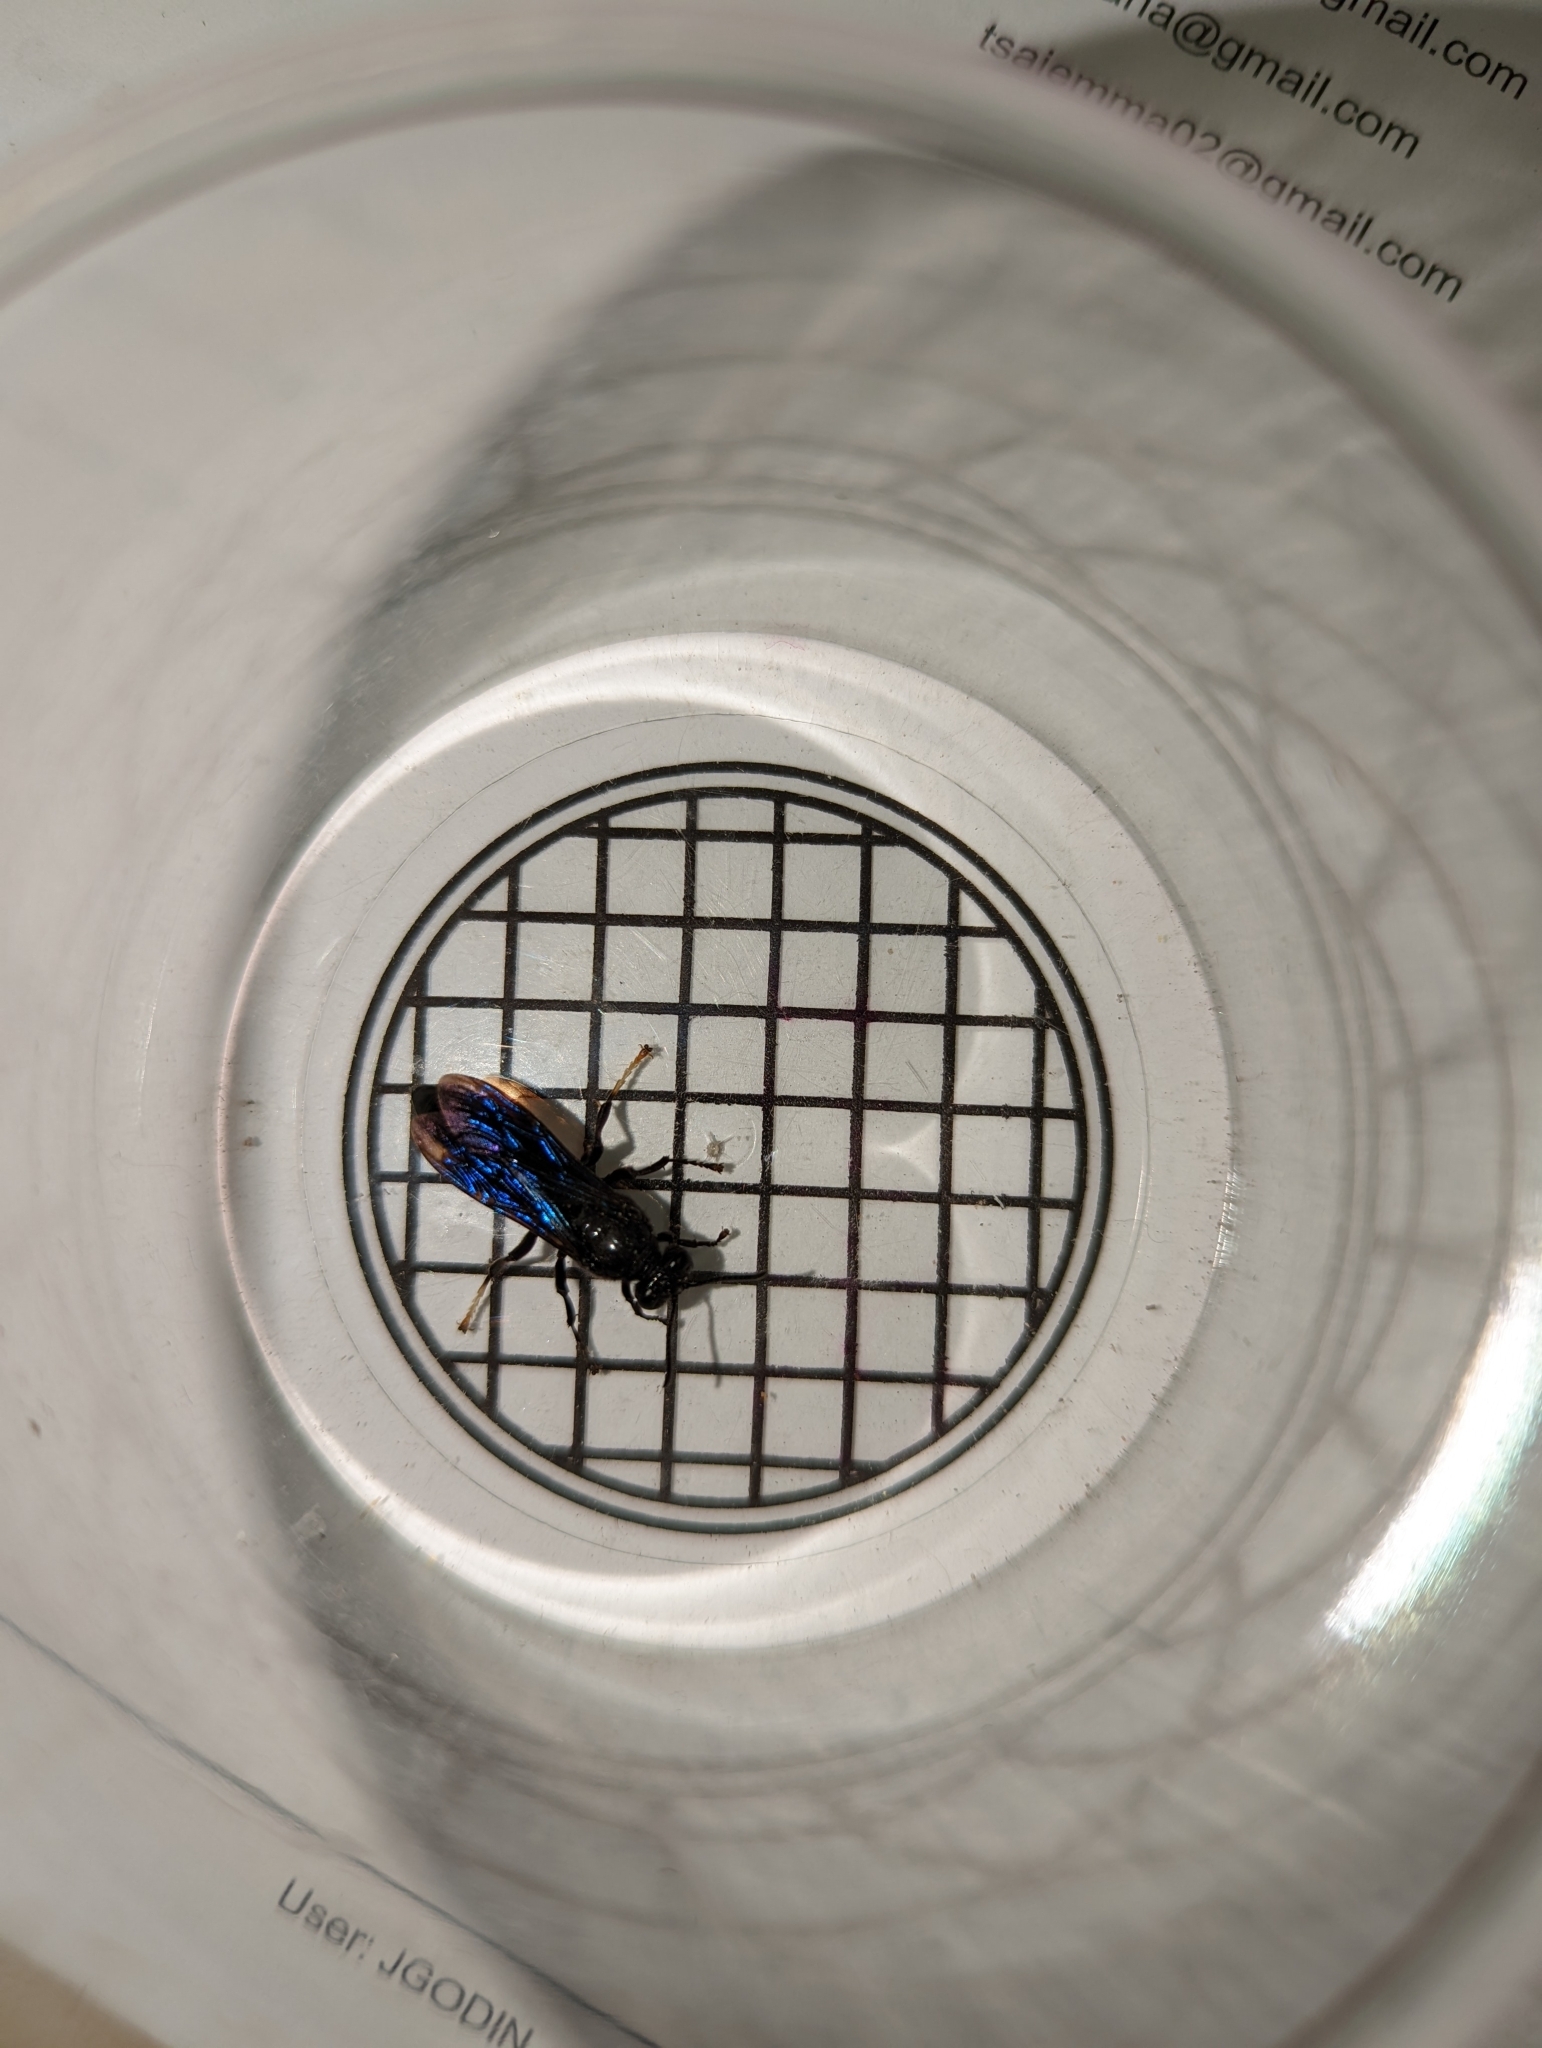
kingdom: Animalia
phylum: Arthropoda
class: Insecta
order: Hymenoptera
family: Crabronidae
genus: Trypoxylon
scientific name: Trypoxylon politum
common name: Organ-pipe mud-dauber wasp
